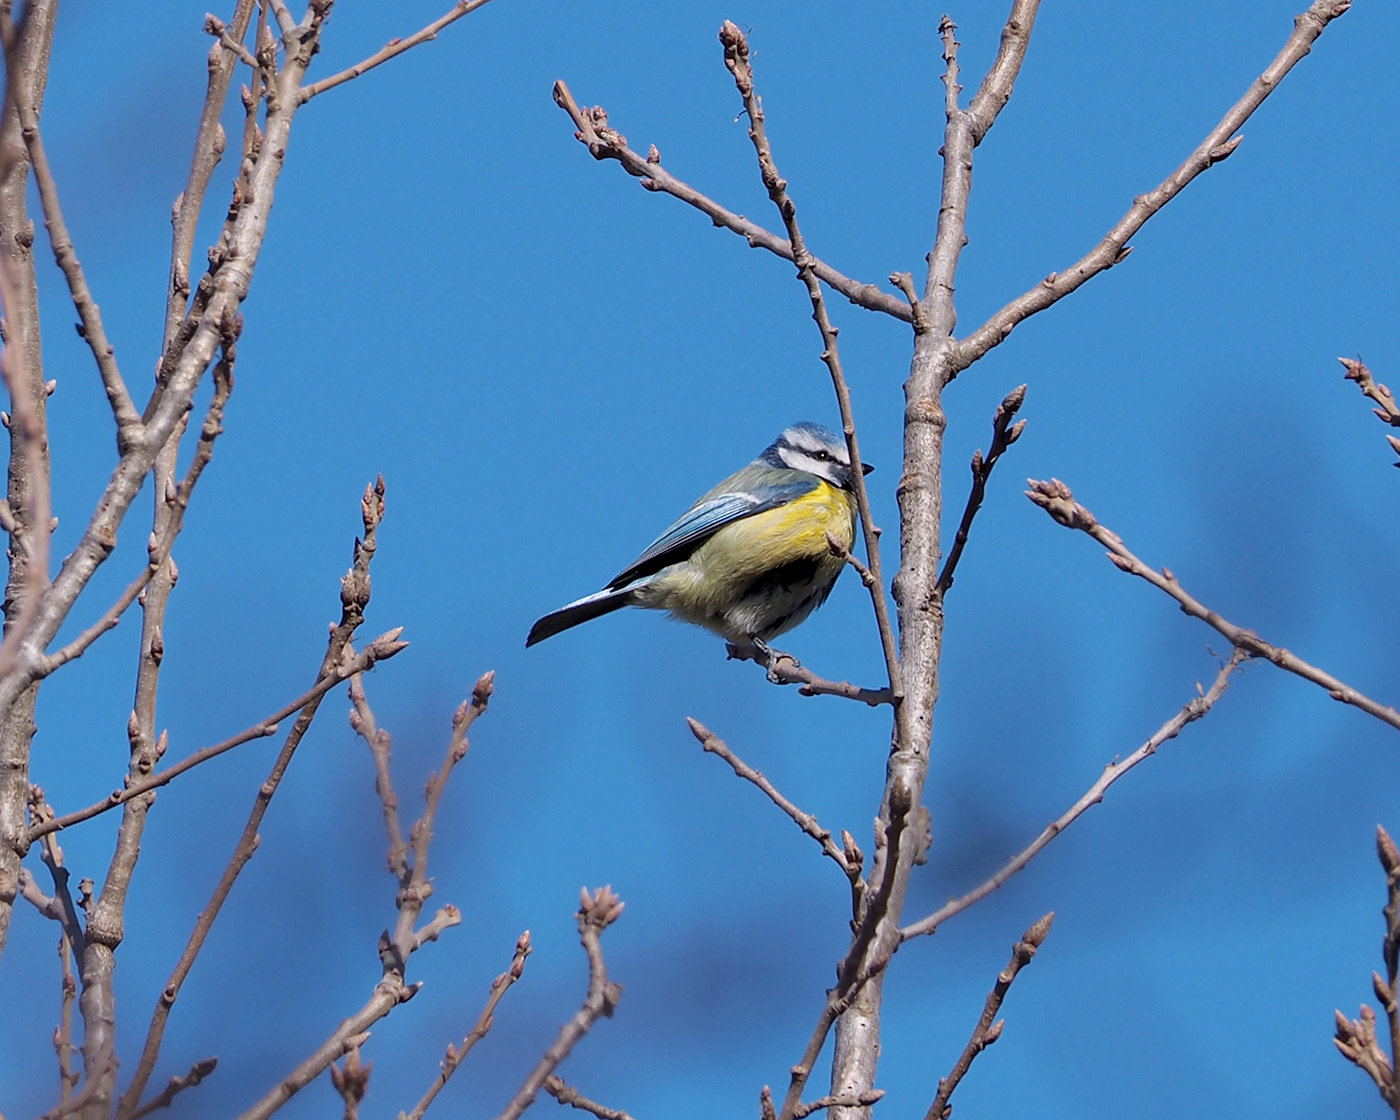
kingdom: Animalia
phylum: Chordata
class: Aves
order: Passeriformes
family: Paridae
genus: Cyanistes
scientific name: Cyanistes caeruleus
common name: Eurasian blue tit
